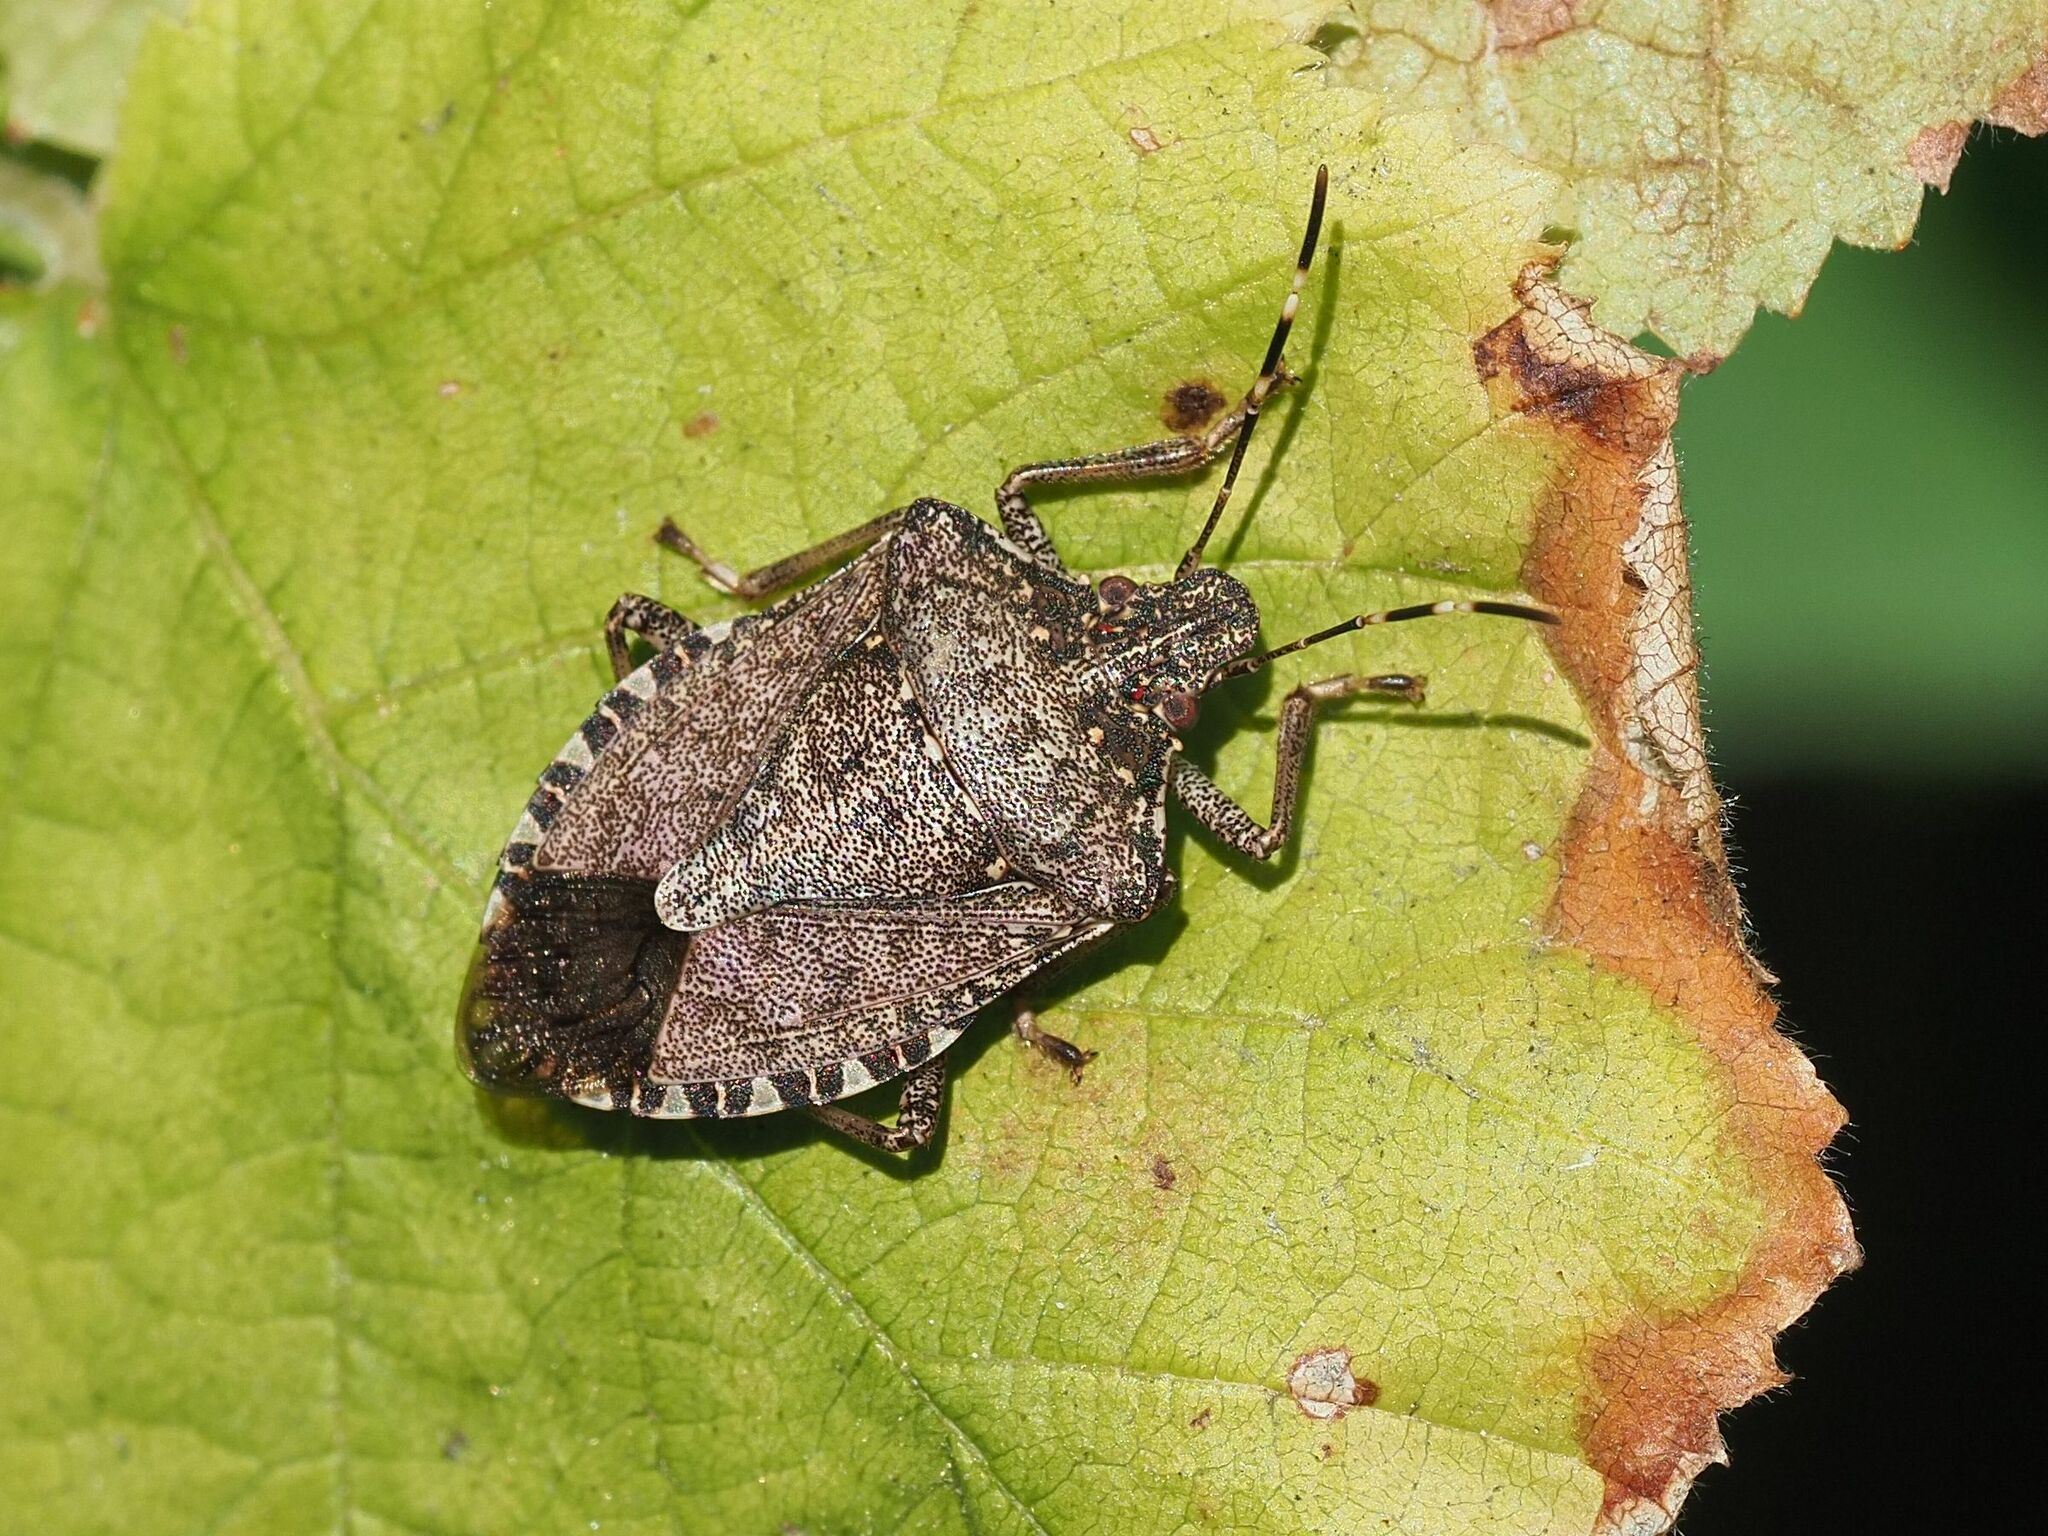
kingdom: Animalia
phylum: Arthropoda
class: Insecta
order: Hemiptera
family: Pentatomidae
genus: Halyomorpha
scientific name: Halyomorpha halys
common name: Brown marmorated stink bug
